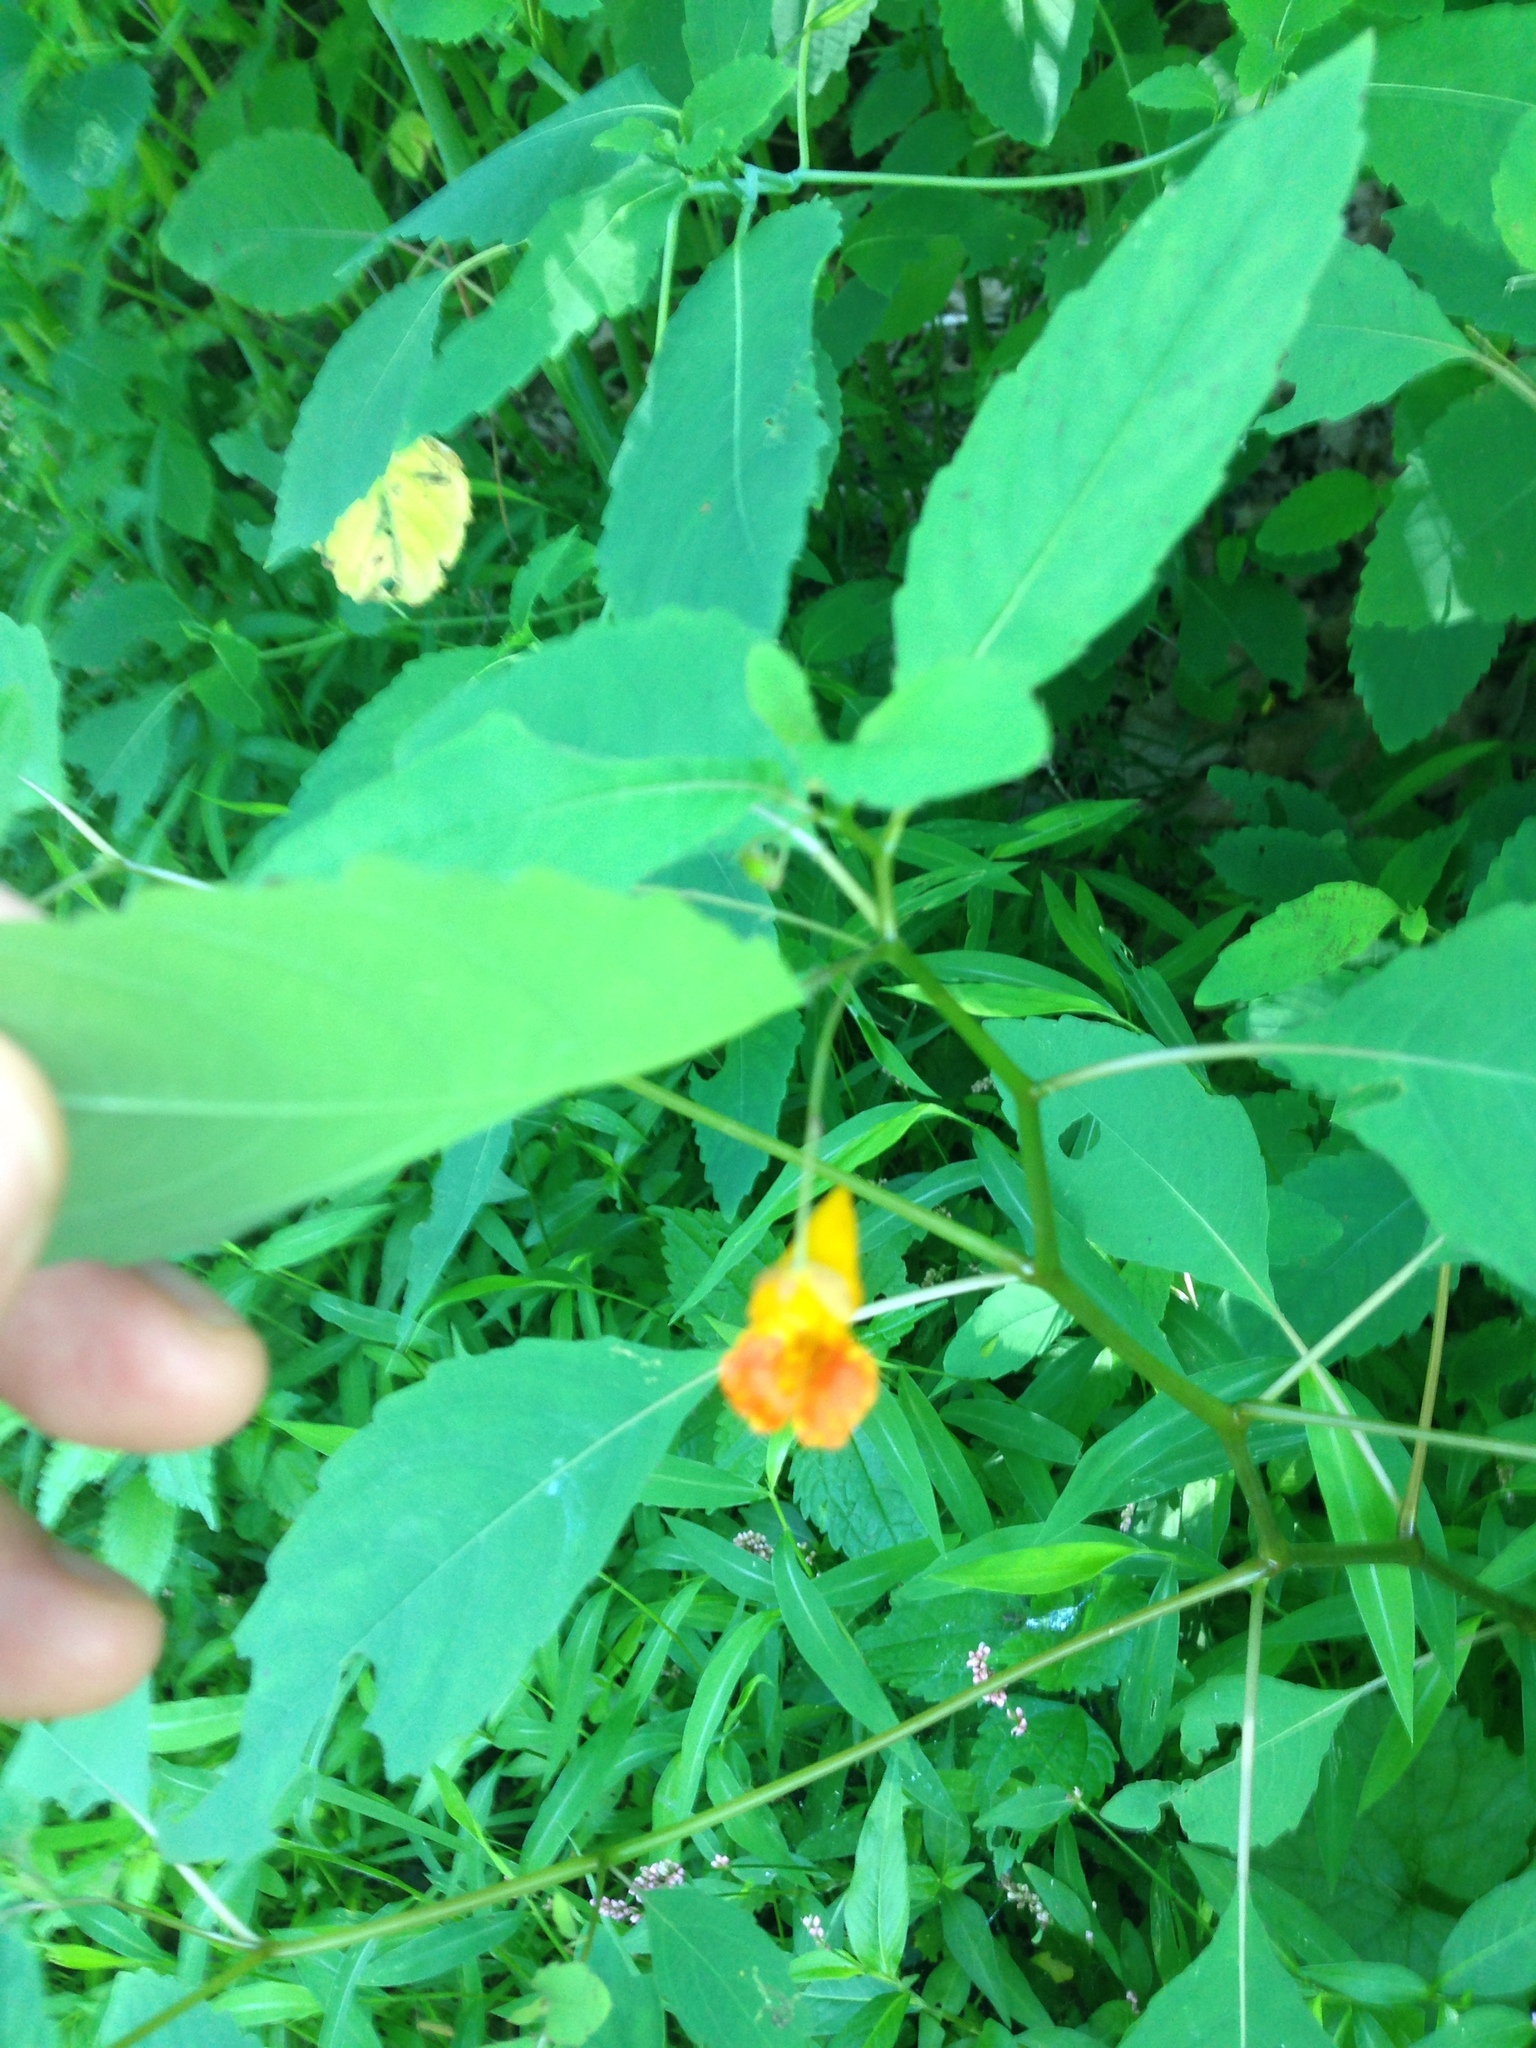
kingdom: Plantae
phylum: Tracheophyta
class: Magnoliopsida
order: Ericales
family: Balsaminaceae
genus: Impatiens
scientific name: Impatiens capensis
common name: Orange balsam
